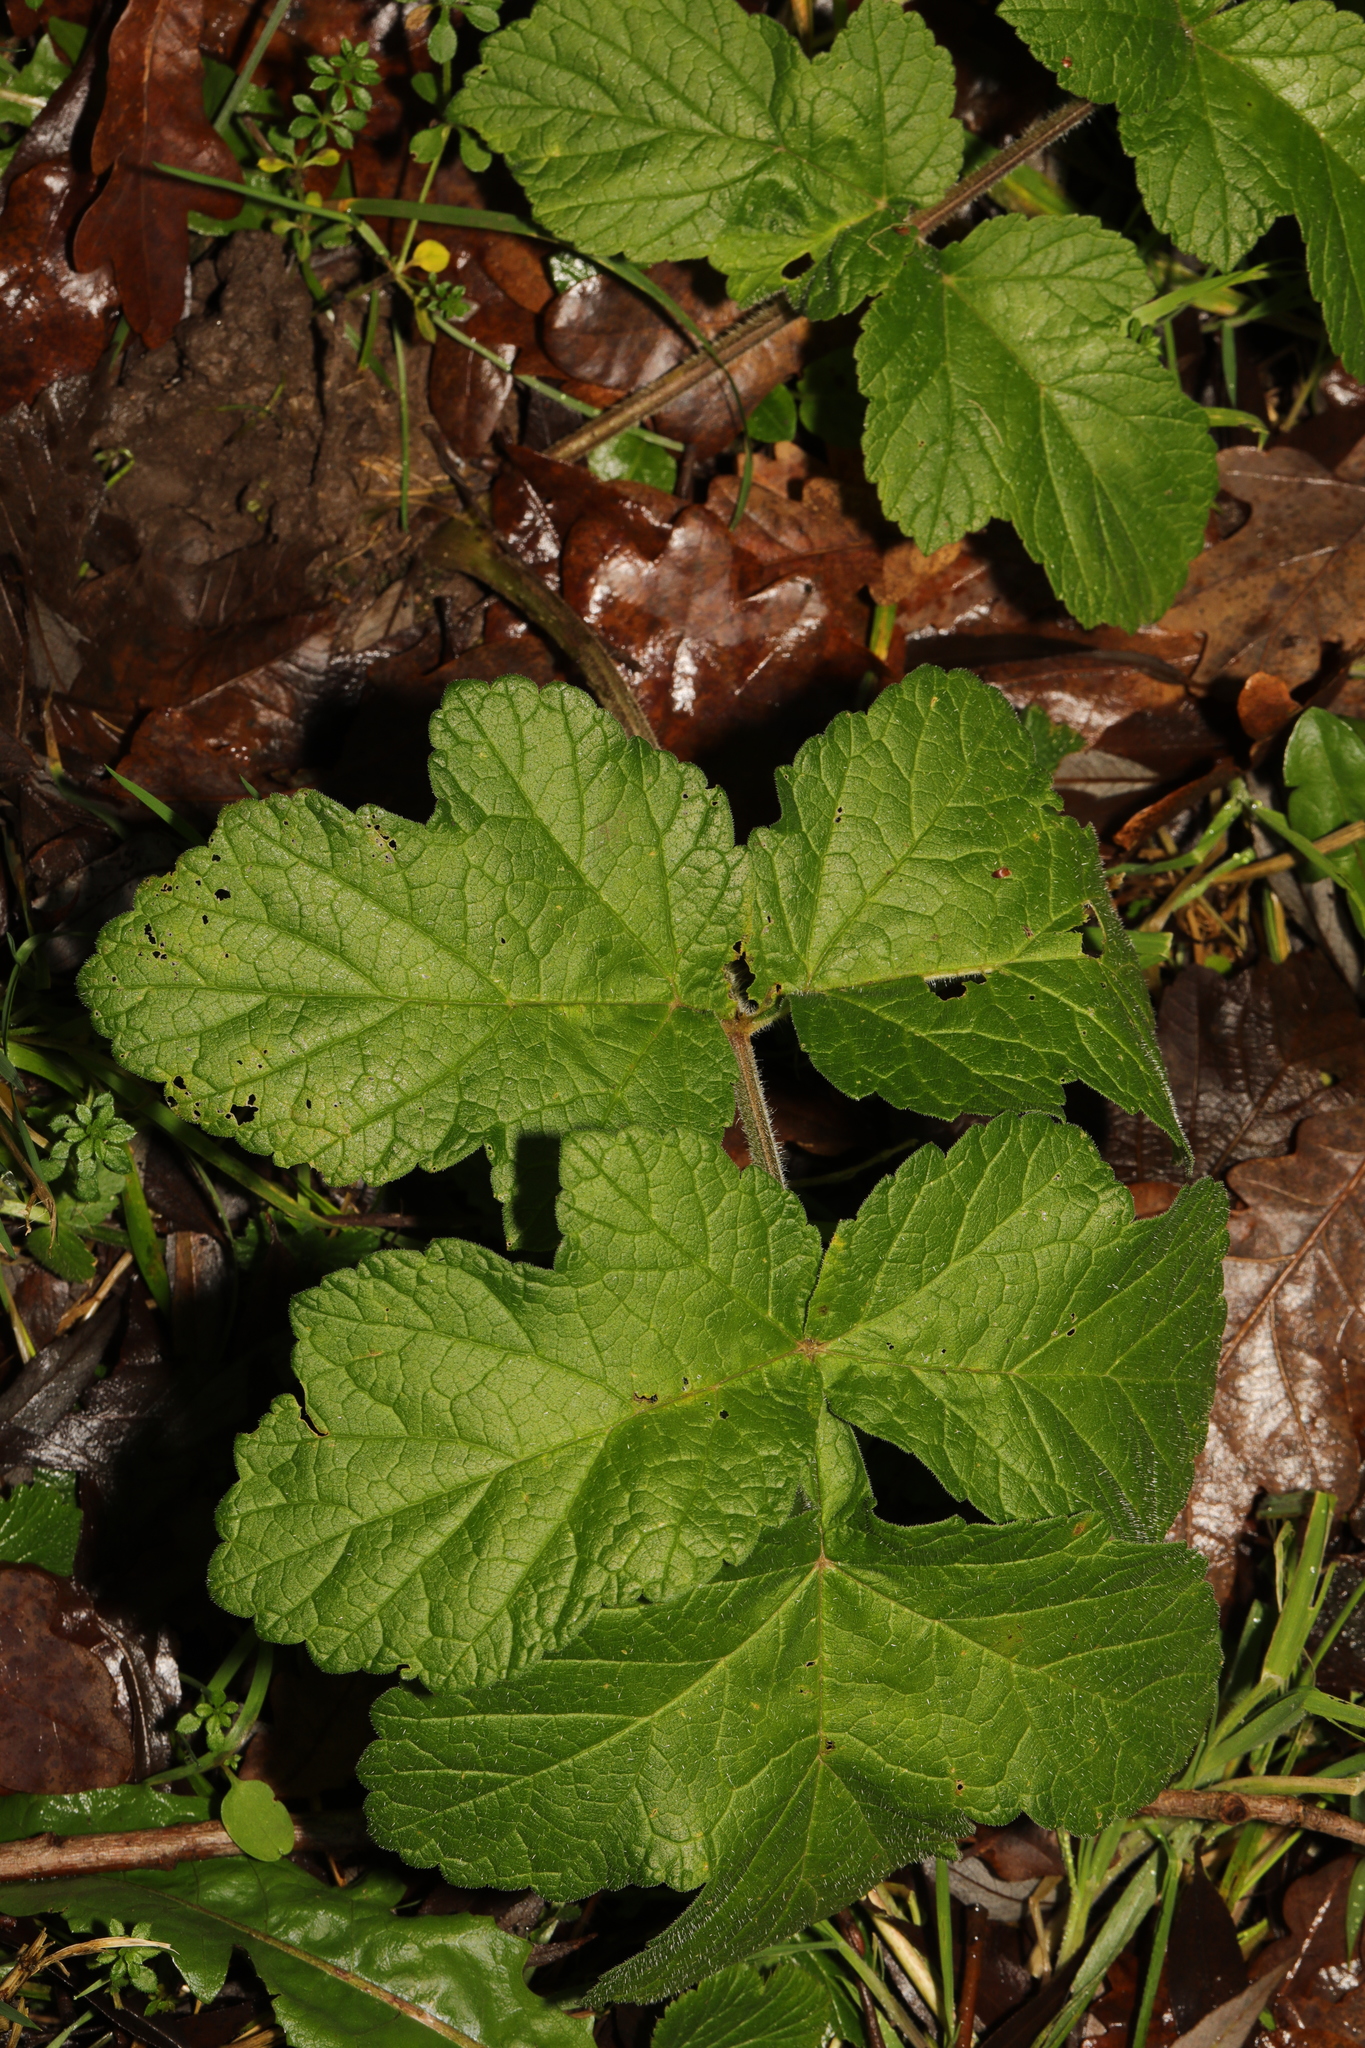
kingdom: Plantae
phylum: Tracheophyta
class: Magnoliopsida
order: Apiales
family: Apiaceae
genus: Heracleum
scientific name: Heracleum sphondylium
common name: Hogweed
